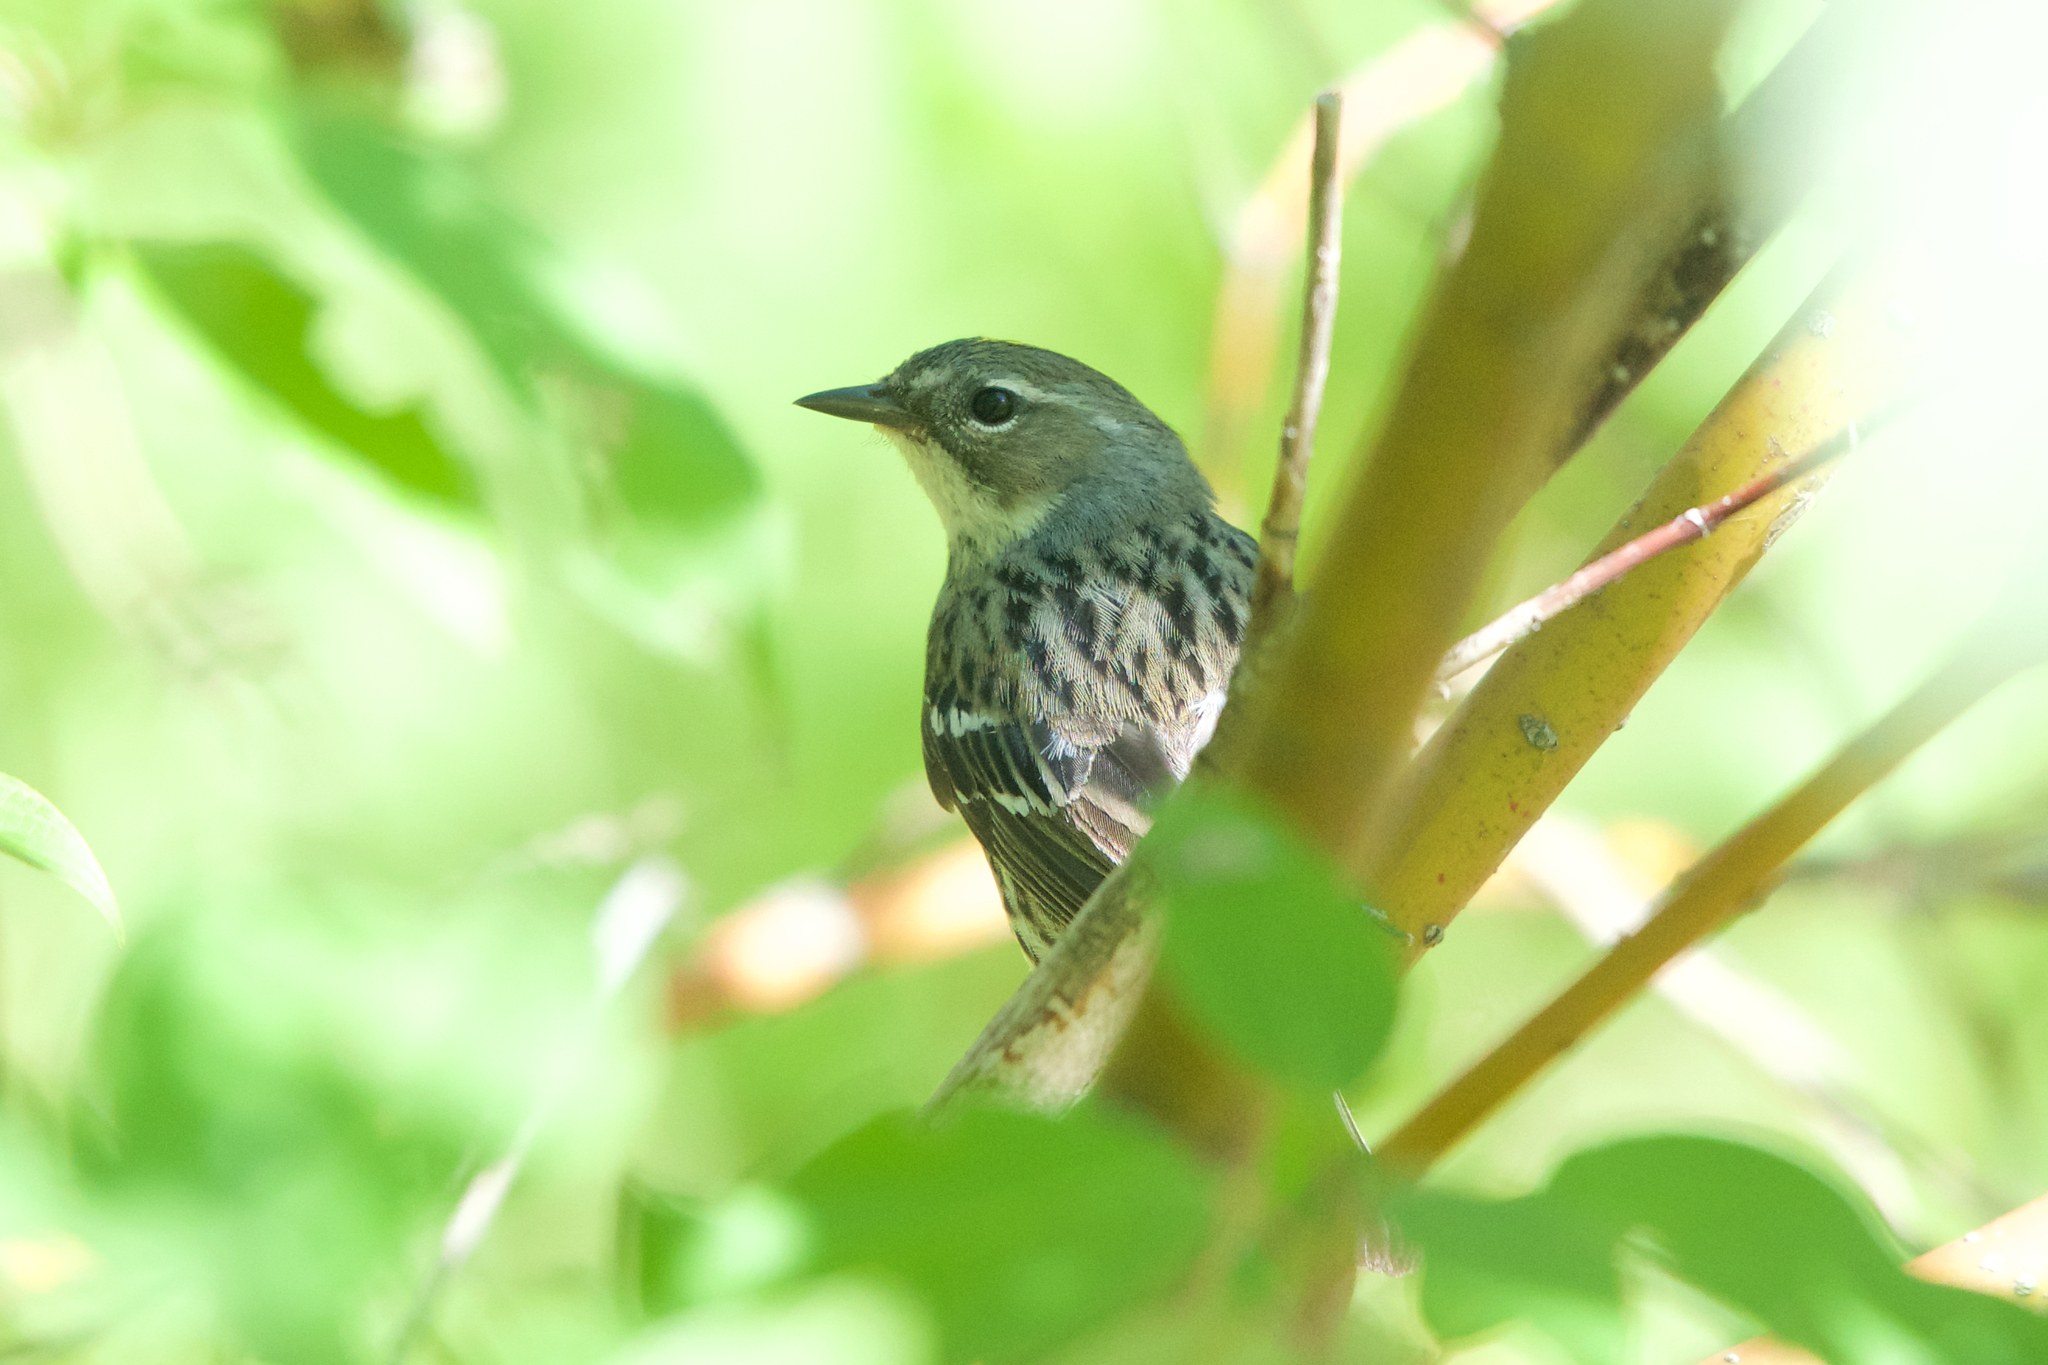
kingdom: Animalia
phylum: Chordata
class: Aves
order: Passeriformes
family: Parulidae
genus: Setophaga
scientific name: Setophaga coronata
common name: Myrtle warbler
